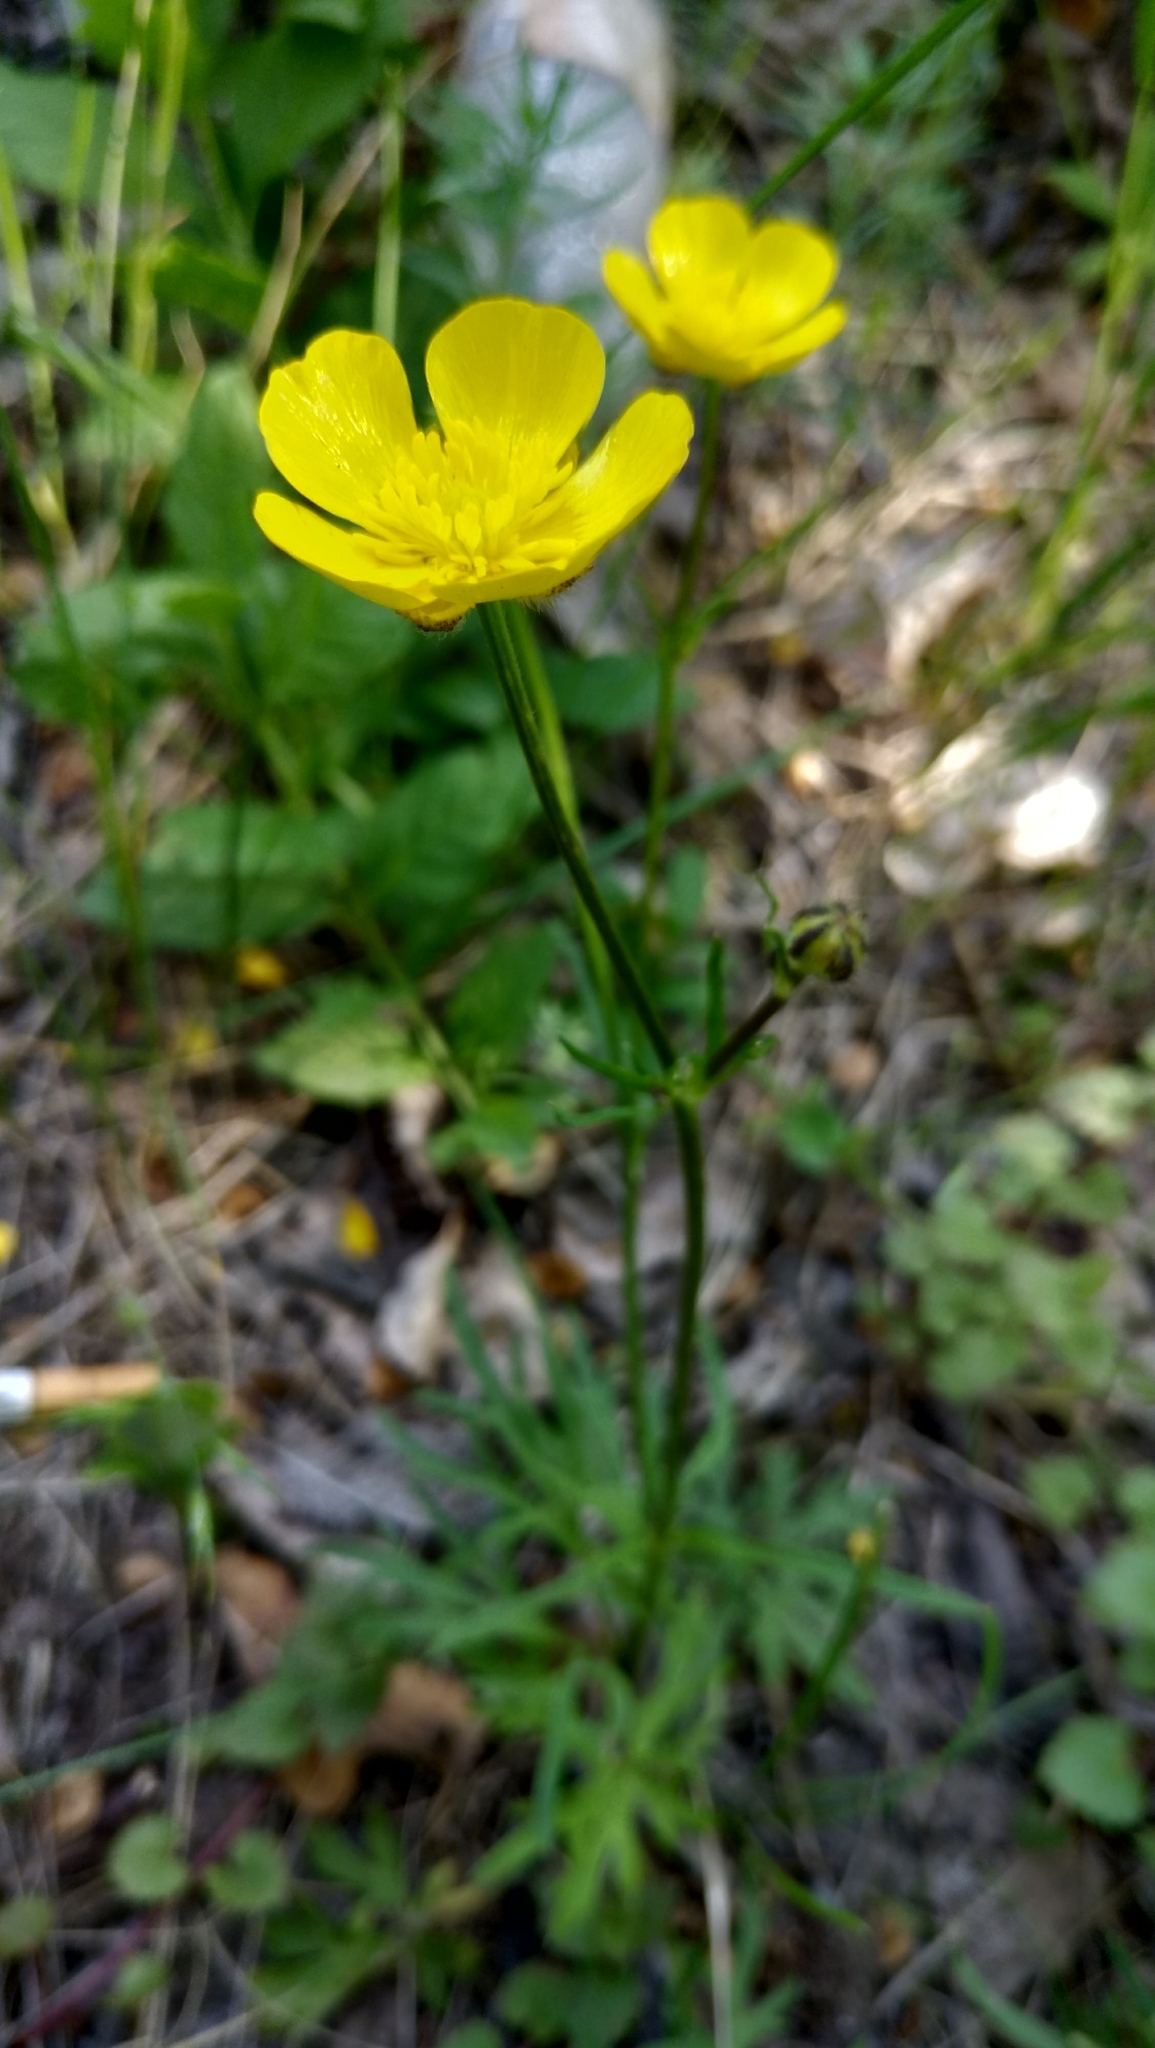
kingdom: Plantae
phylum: Tracheophyta
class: Magnoliopsida
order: Ranunculales
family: Ranunculaceae
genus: Ranunculus
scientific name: Ranunculus polyanthemos
